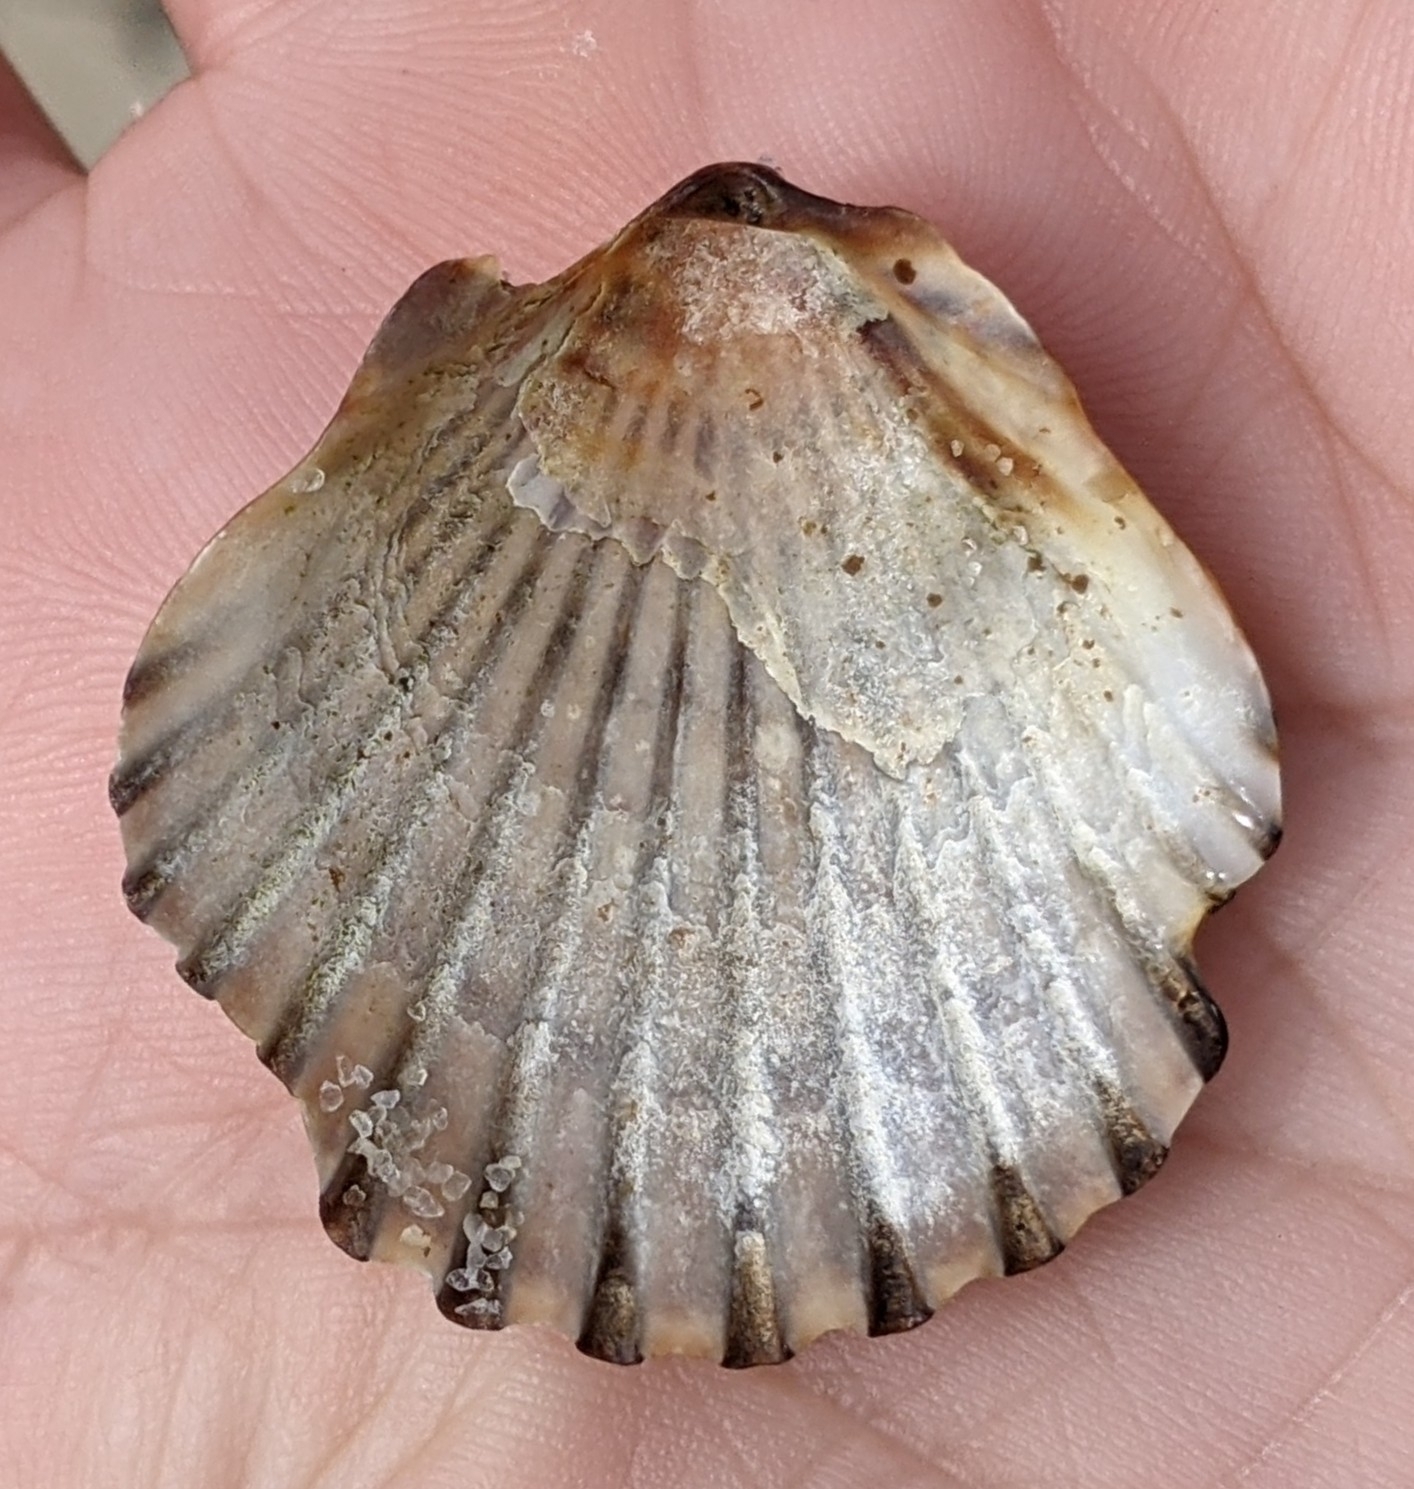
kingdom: Animalia
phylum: Mollusca
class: Bivalvia
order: Pectinida
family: Pectinidae
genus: Argopecten
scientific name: Argopecten irradians
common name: Atlantic bay scallop
